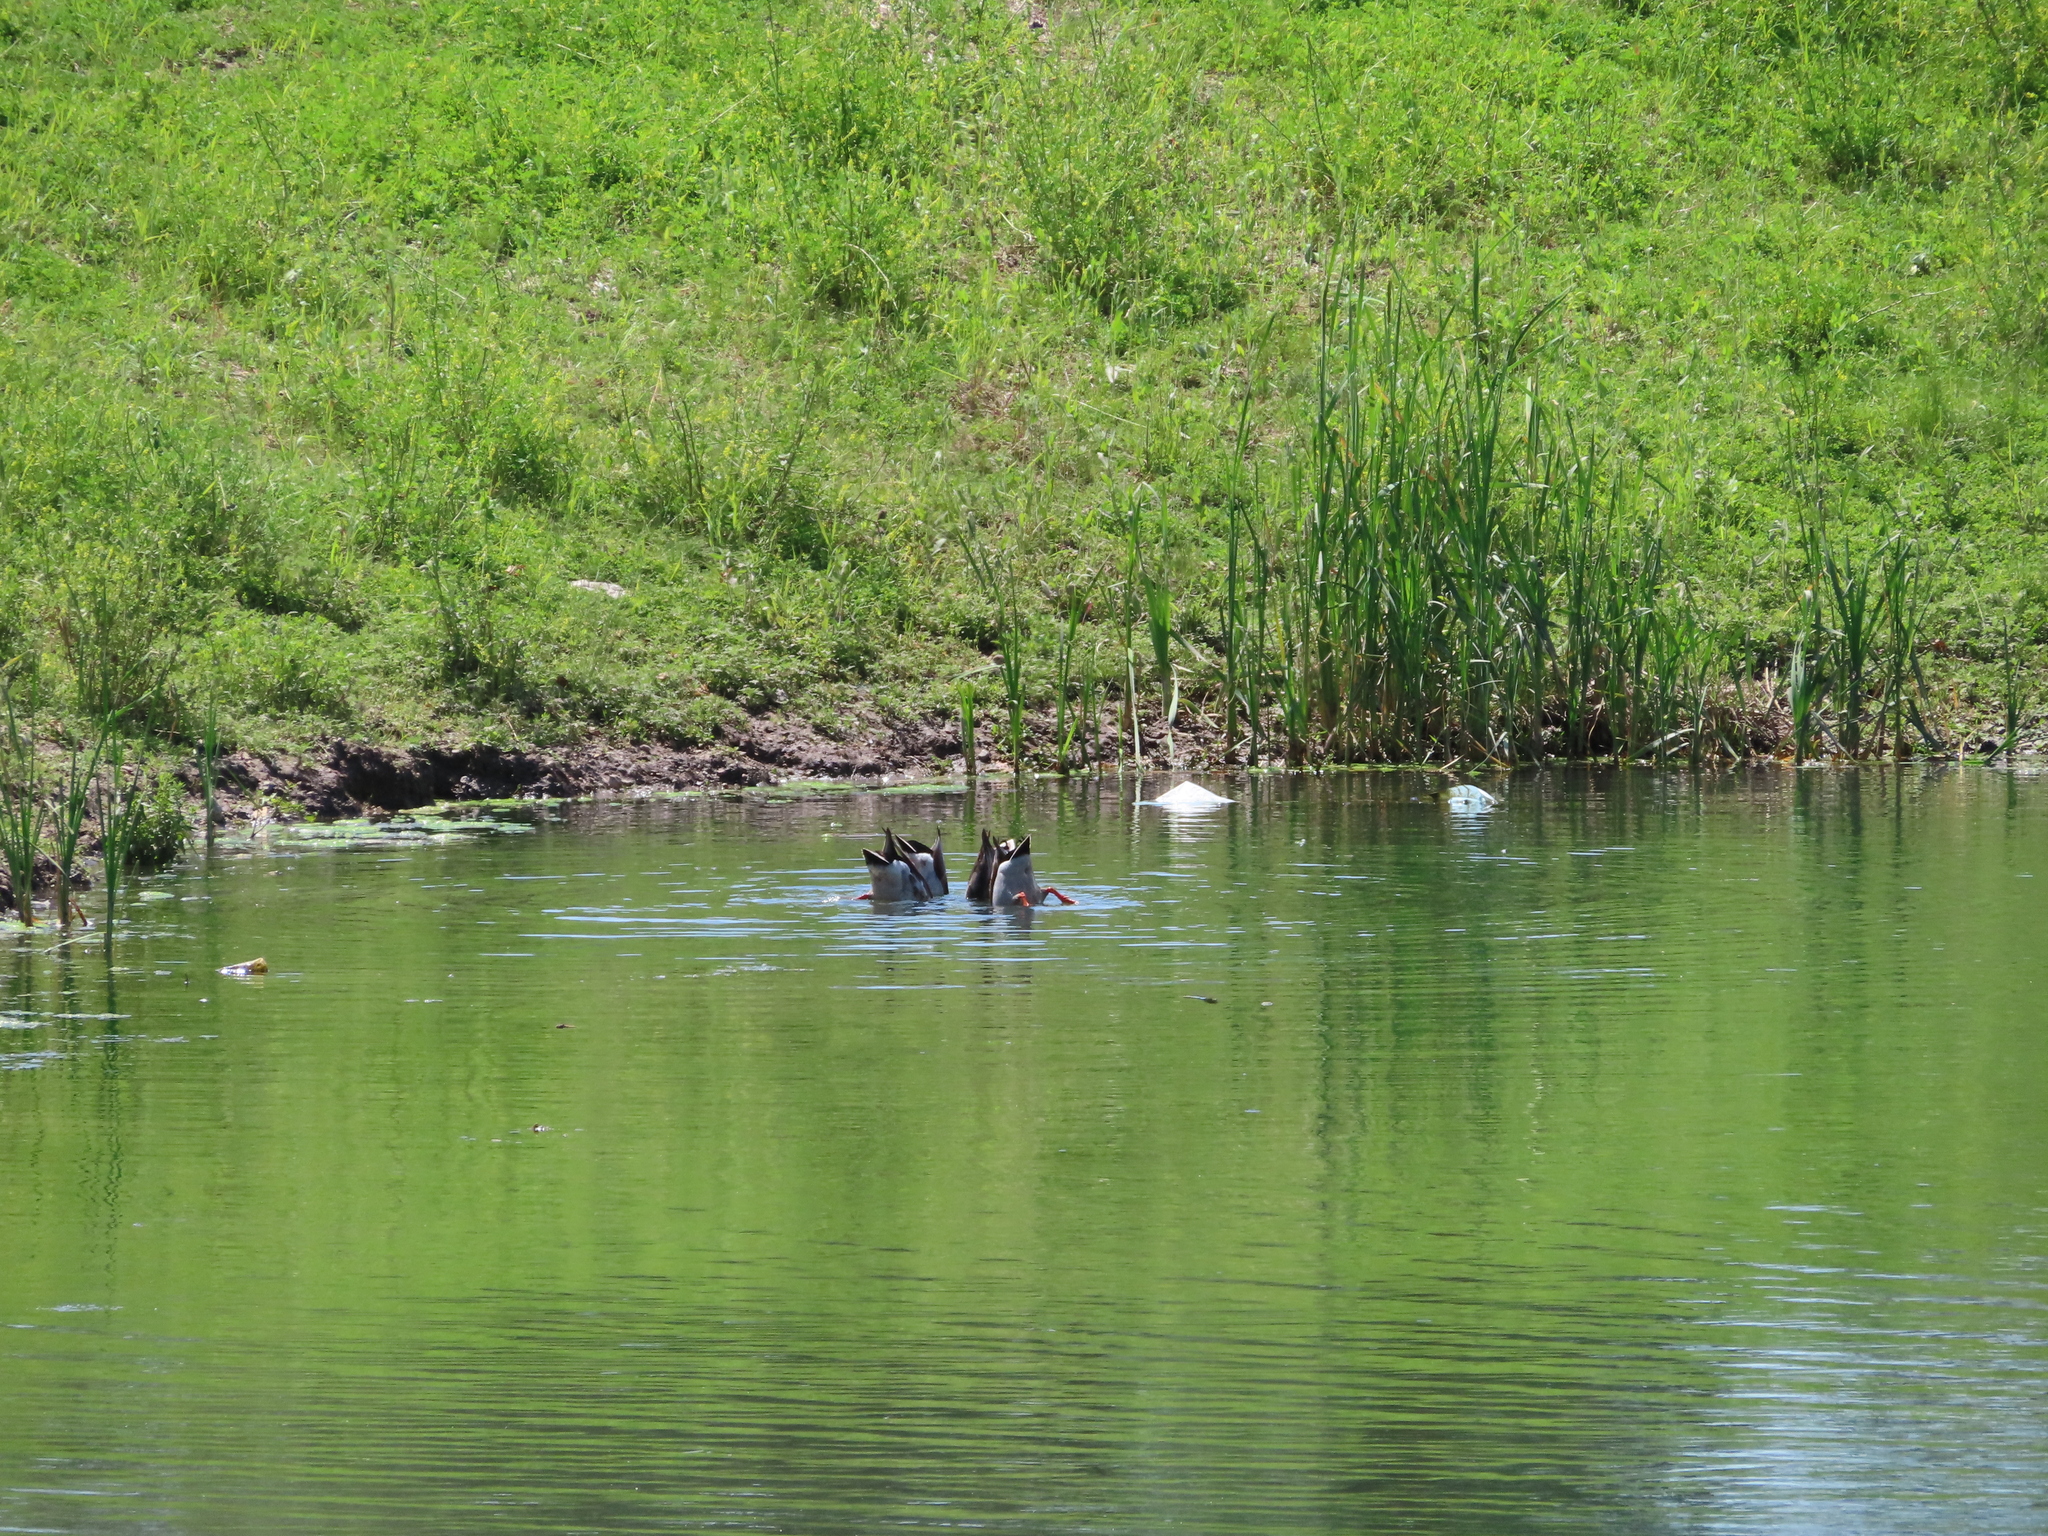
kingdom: Animalia
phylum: Chordata
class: Aves
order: Anseriformes
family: Anatidae
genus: Anas
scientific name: Anas platyrhynchos
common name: Mallard
